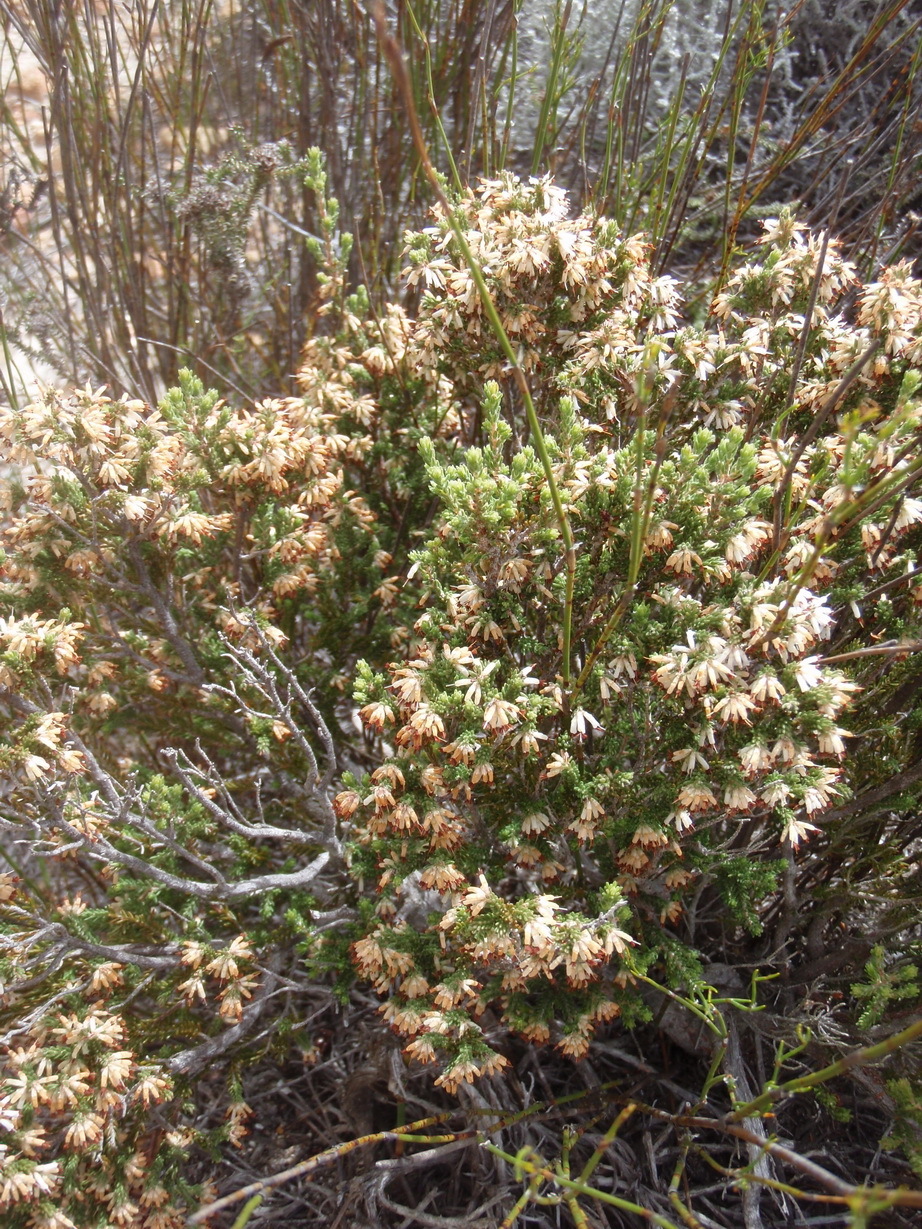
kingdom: Plantae
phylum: Tracheophyta
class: Magnoliopsida
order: Ericales
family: Ericaceae
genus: Erica
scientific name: Erica uberiflora
